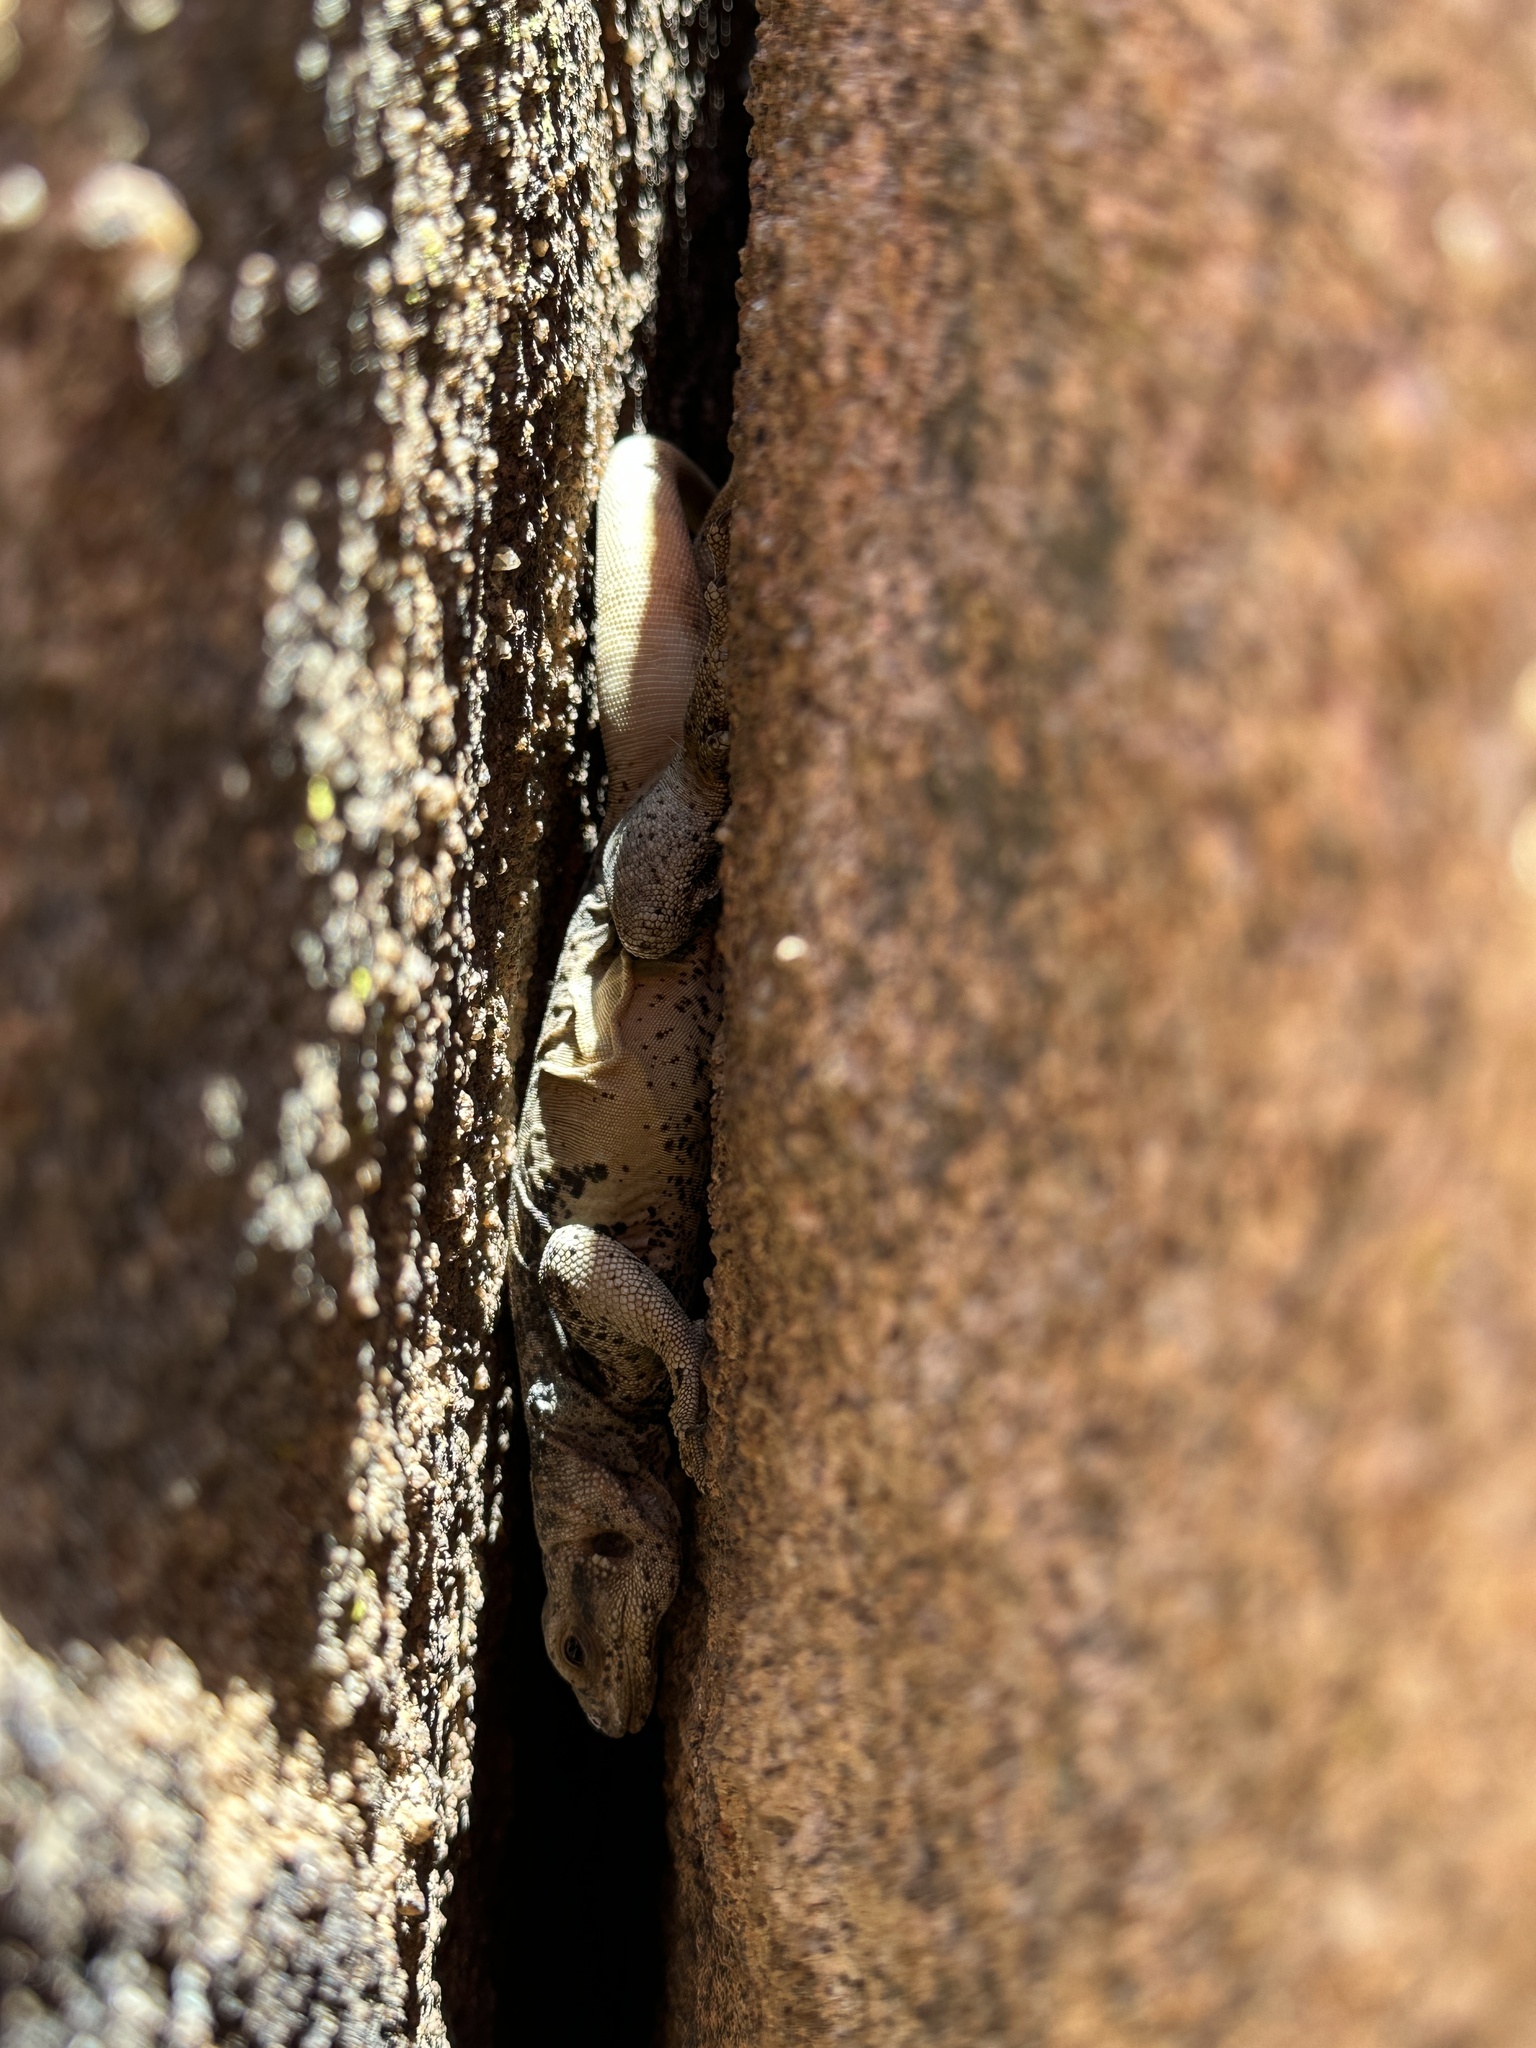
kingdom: Animalia
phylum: Chordata
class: Squamata
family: Iguanidae
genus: Sauromalus
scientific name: Sauromalus ater
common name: Northern chuckwalla
